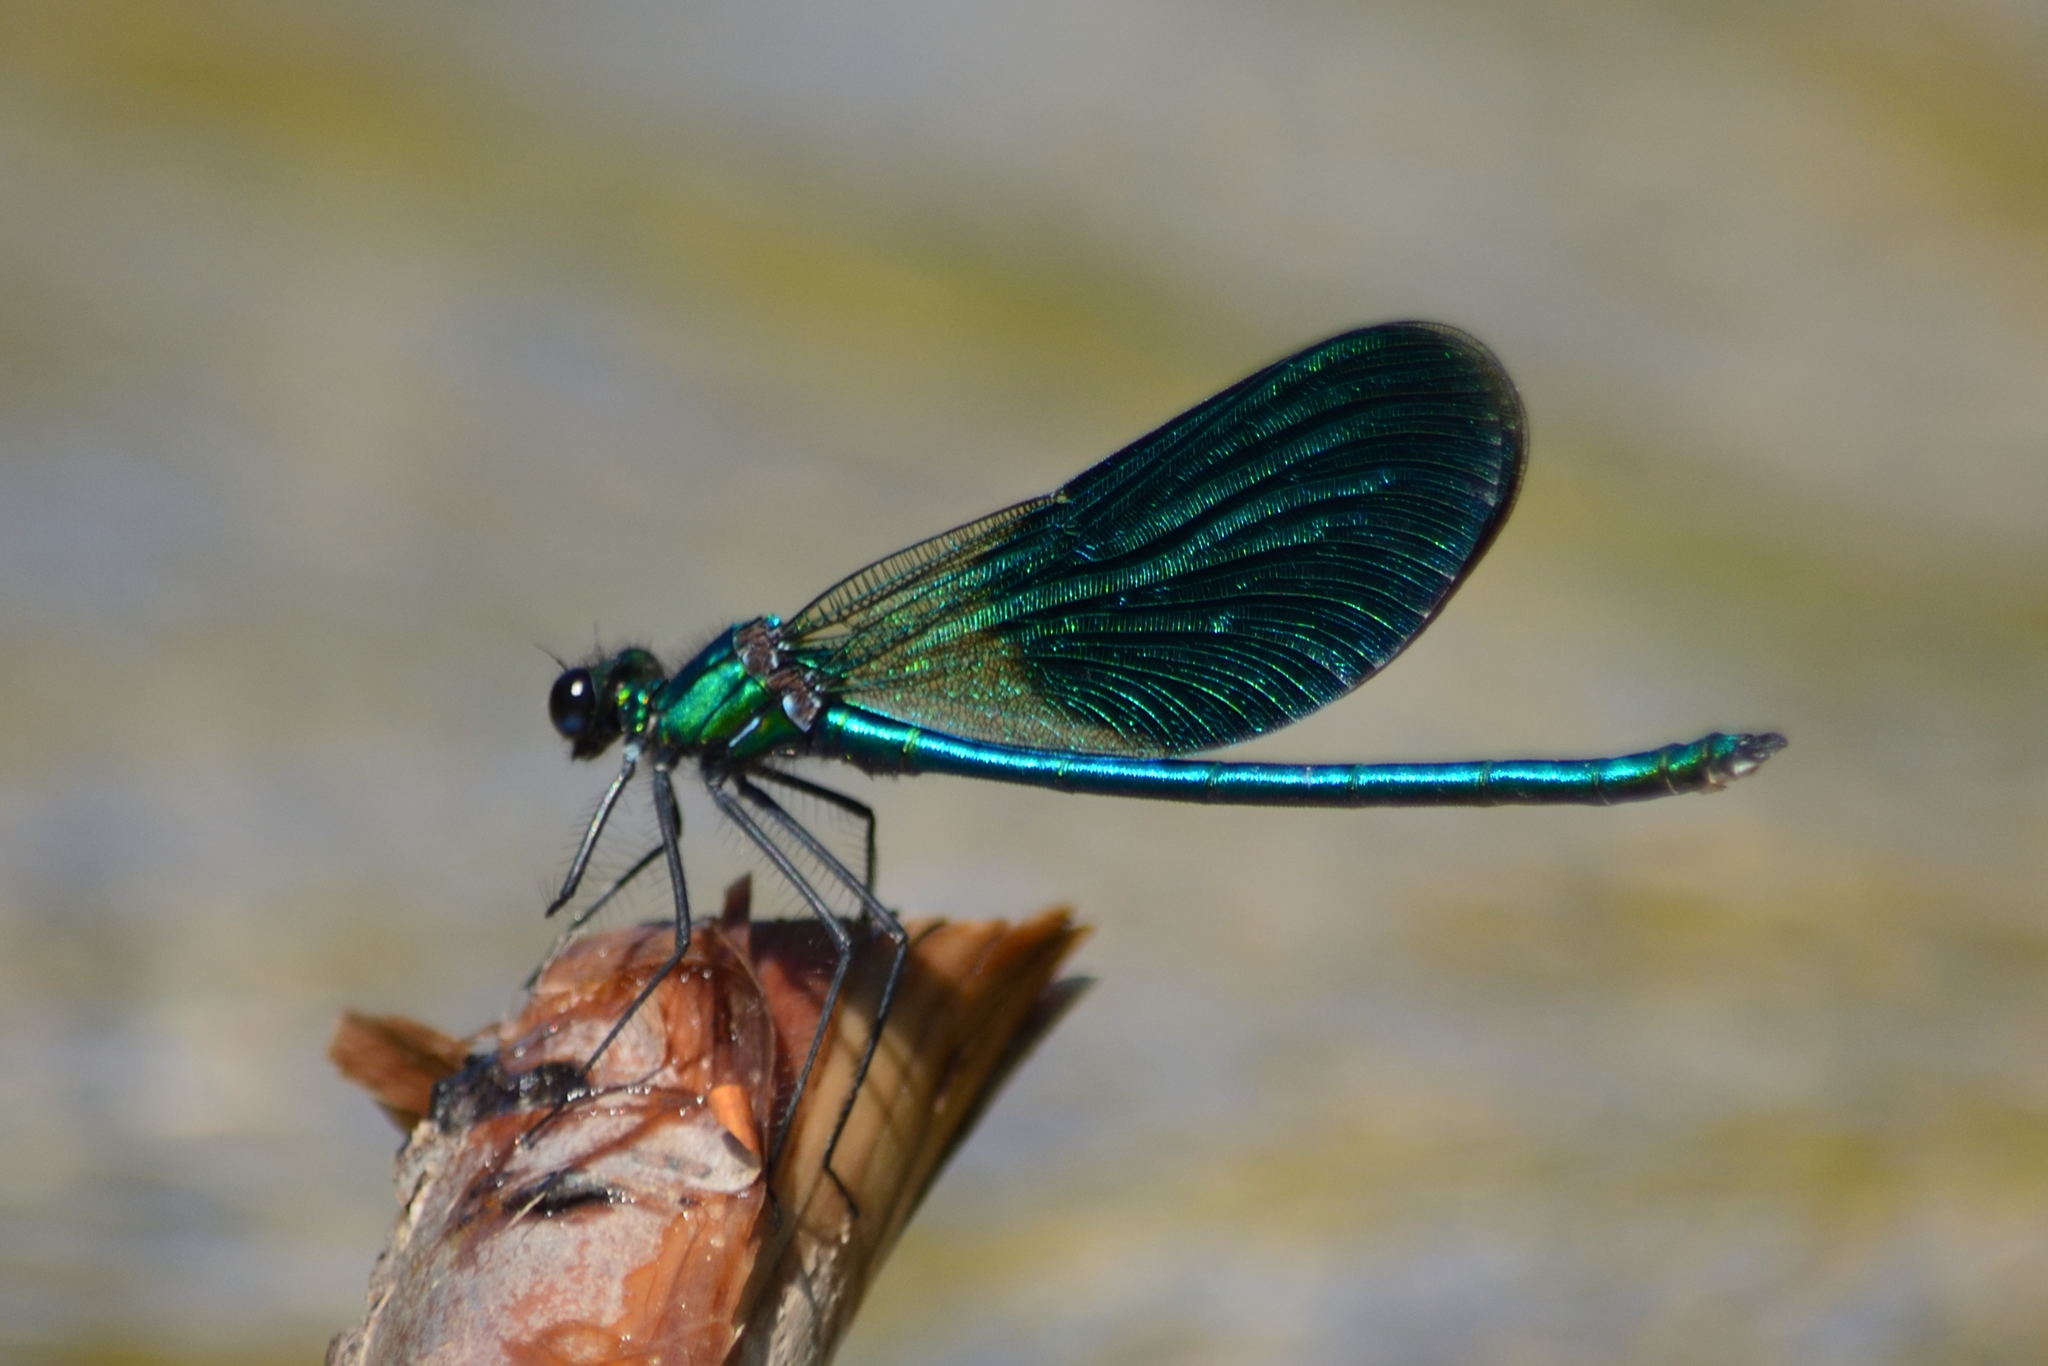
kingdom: Animalia
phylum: Arthropoda
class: Insecta
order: Odonata
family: Calopterygidae
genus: Calopteryx
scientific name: Calopteryx splendens
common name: Banded demoiselle
